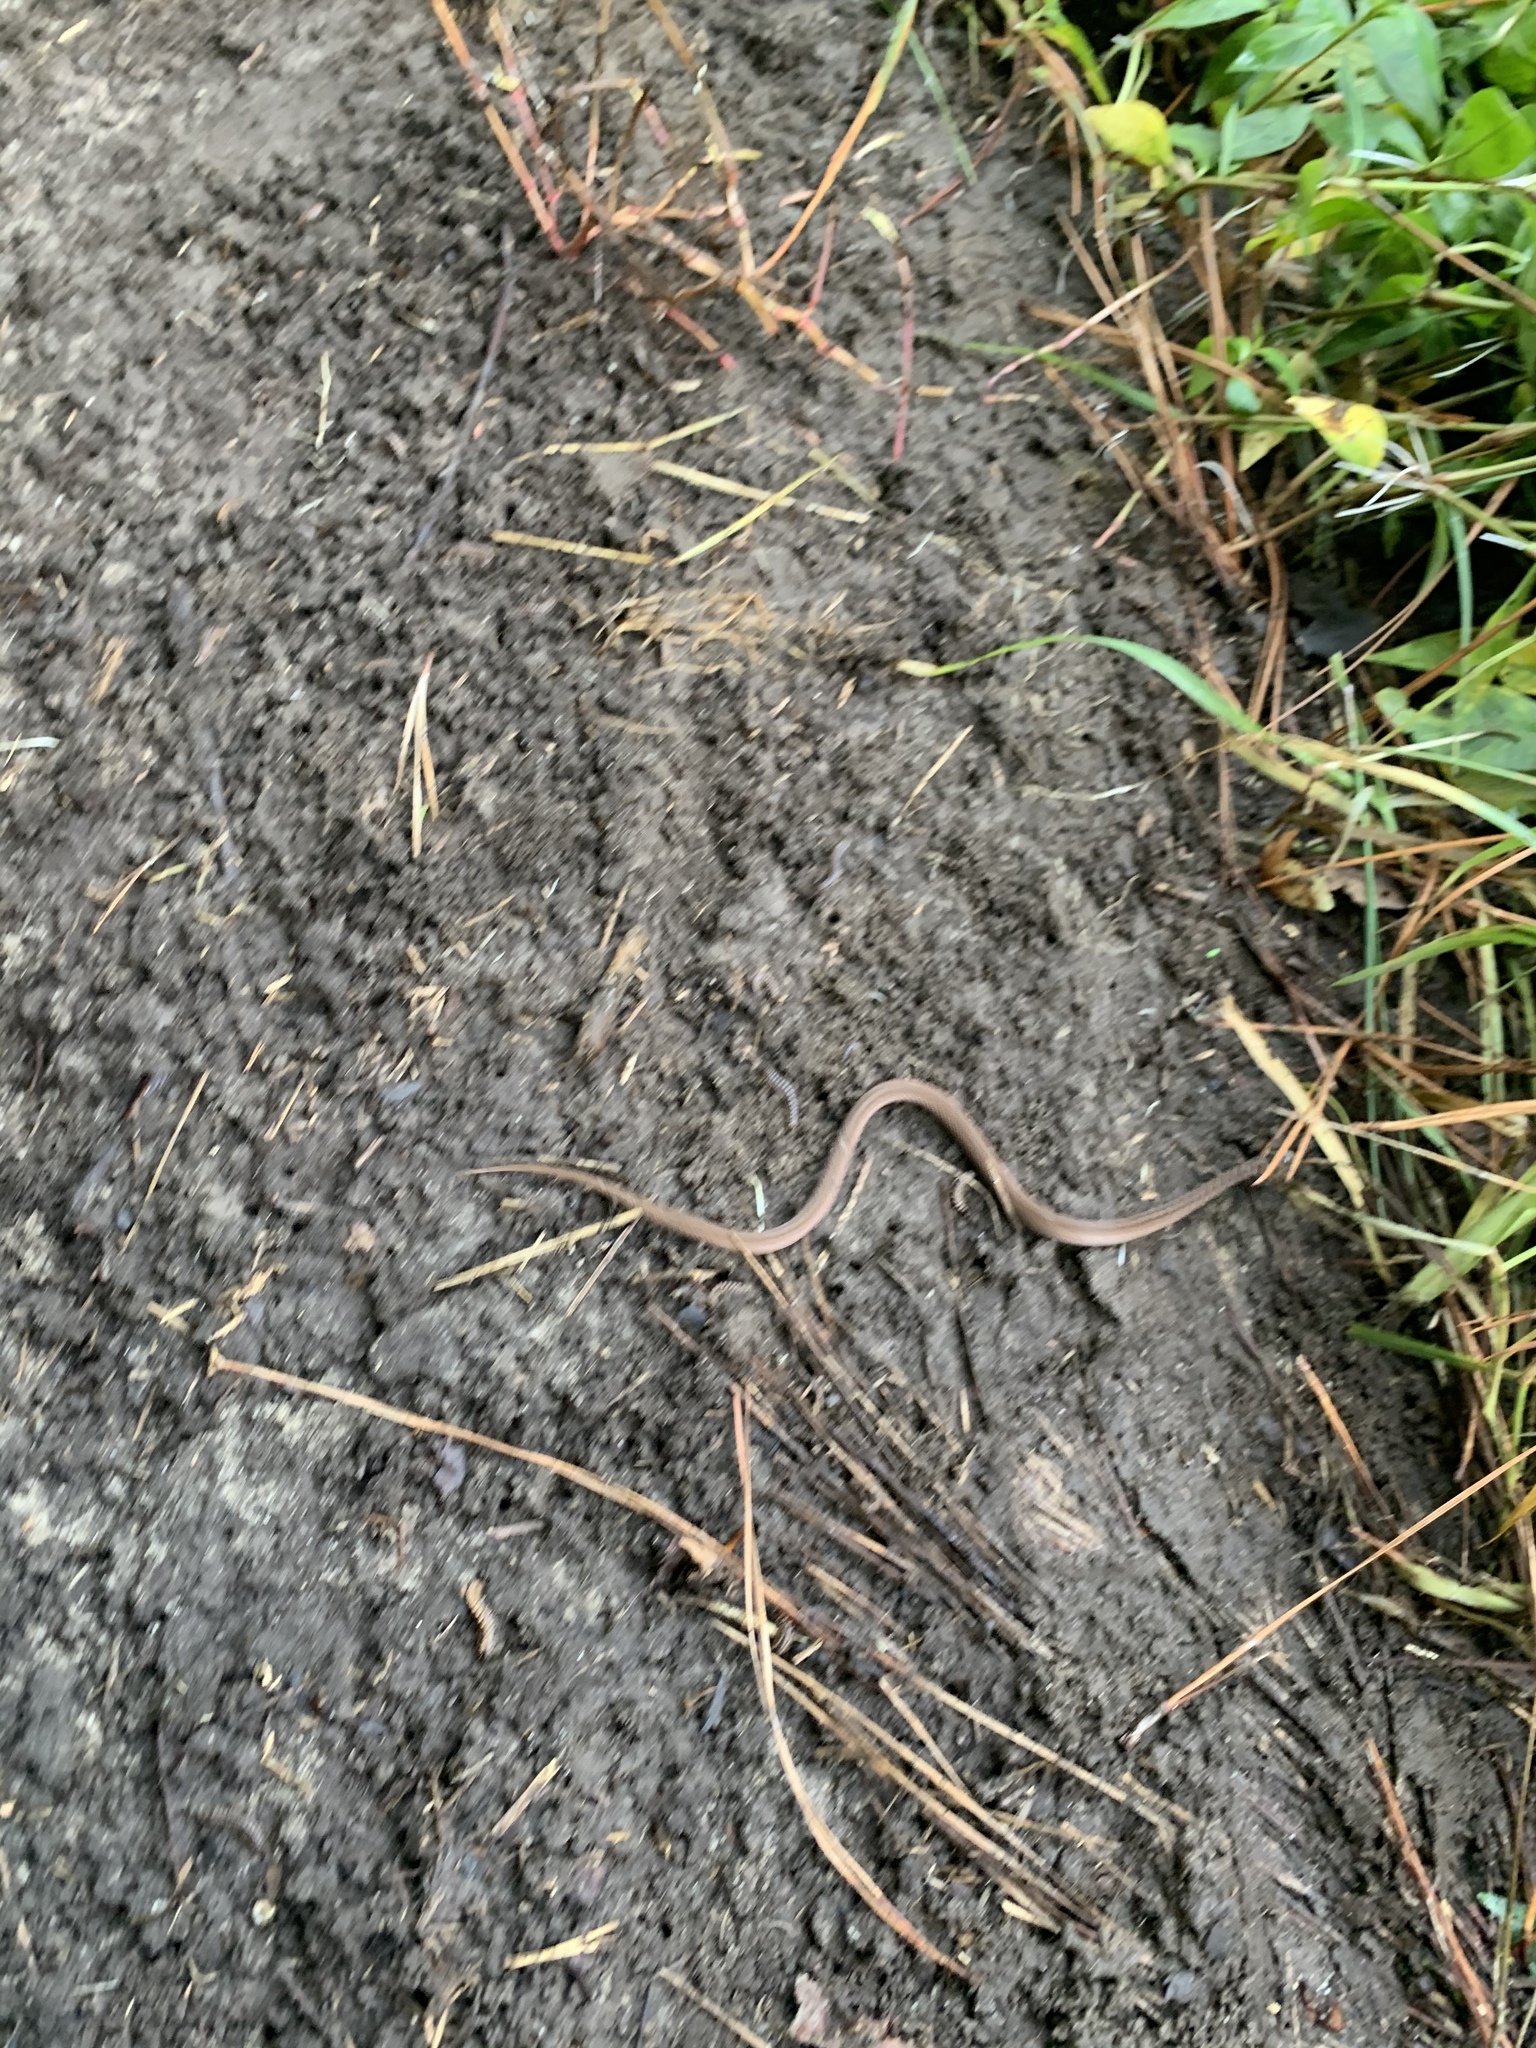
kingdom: Animalia
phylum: Chordata
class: Squamata
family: Colubridae
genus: Storeria
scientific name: Storeria dekayi
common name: (dekay’s) brown snake
